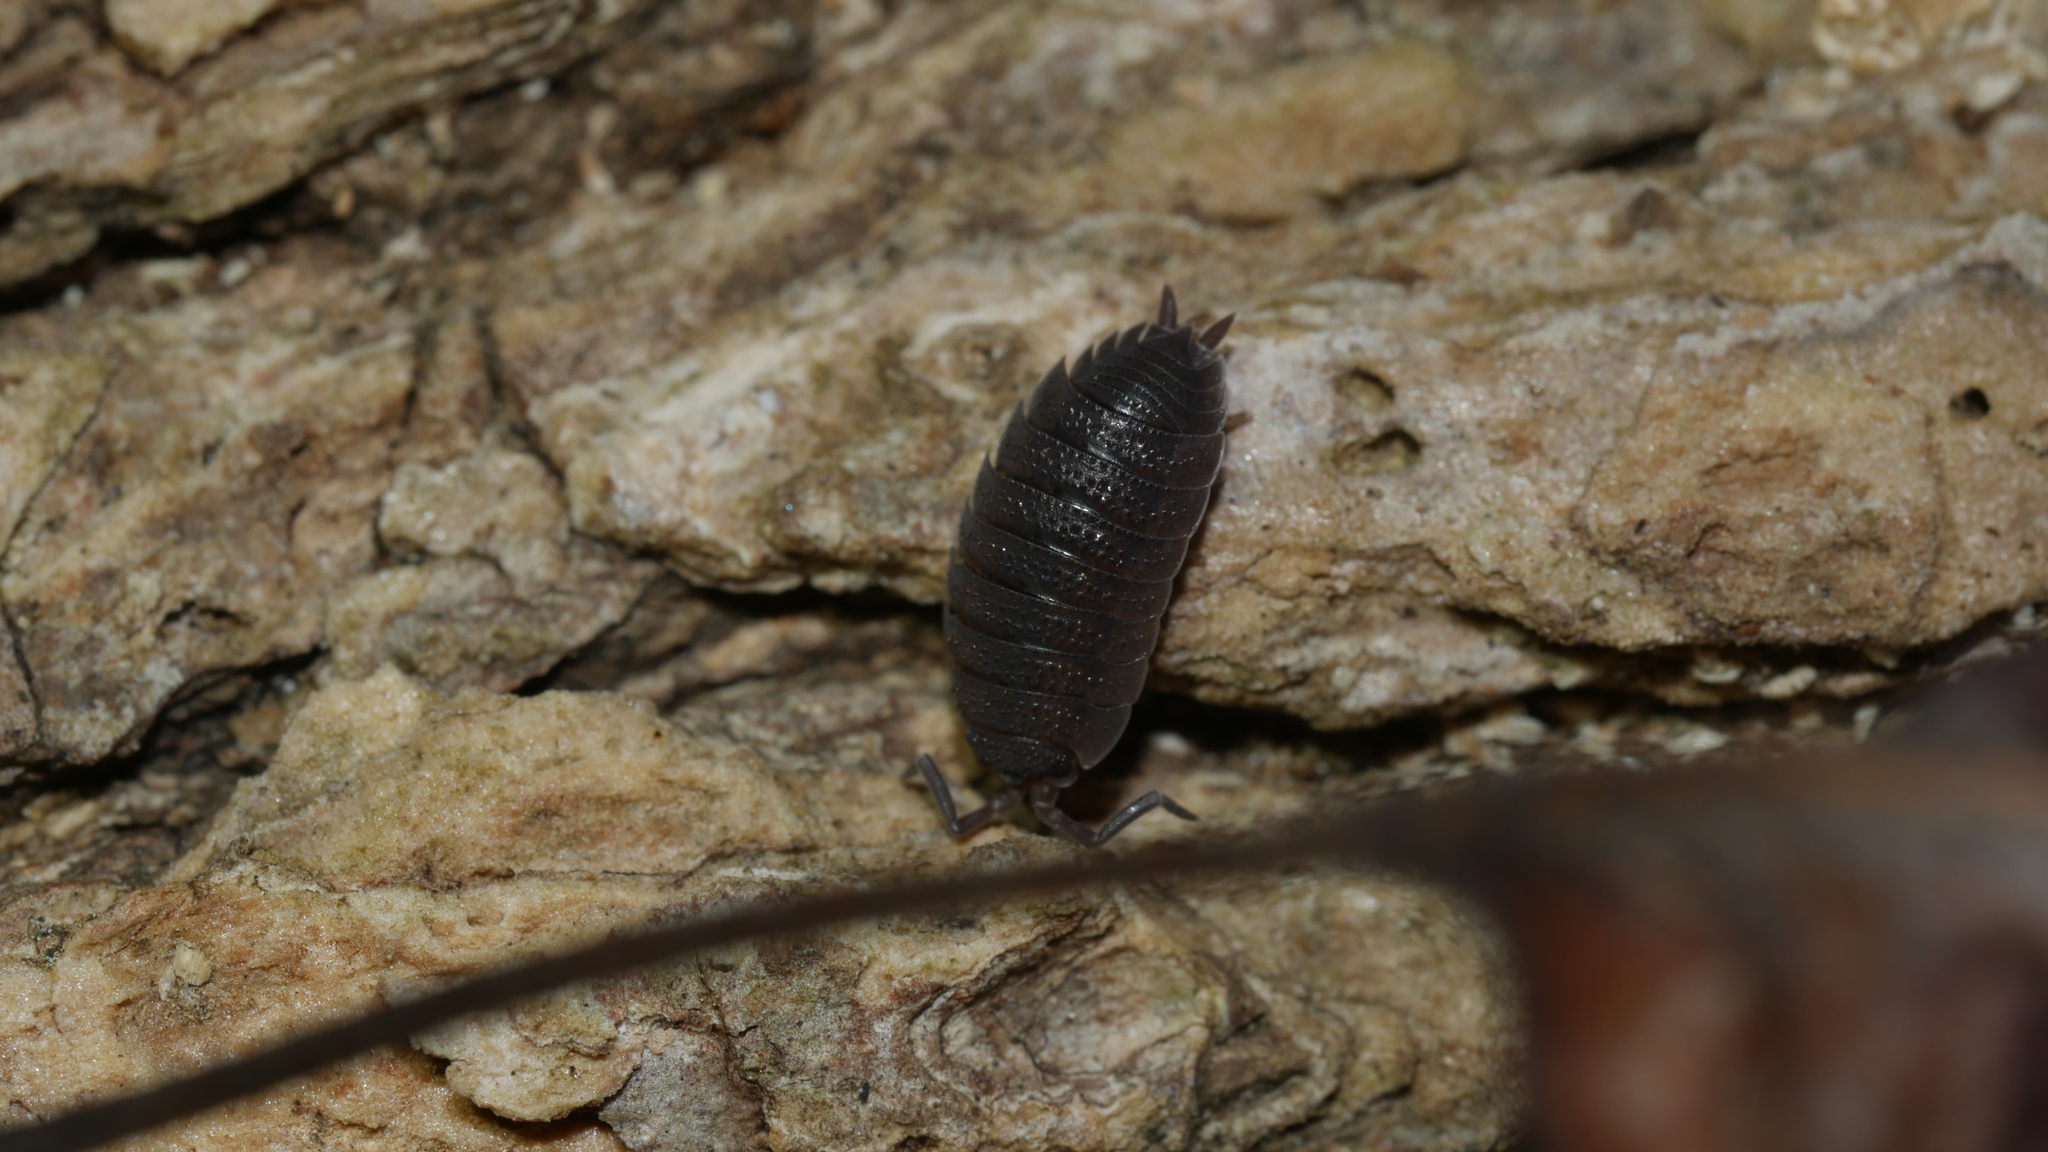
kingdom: Animalia
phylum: Arthropoda
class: Malacostraca
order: Isopoda
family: Porcellionidae
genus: Porcellio
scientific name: Porcellio scaber
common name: Common rough woodlouse
